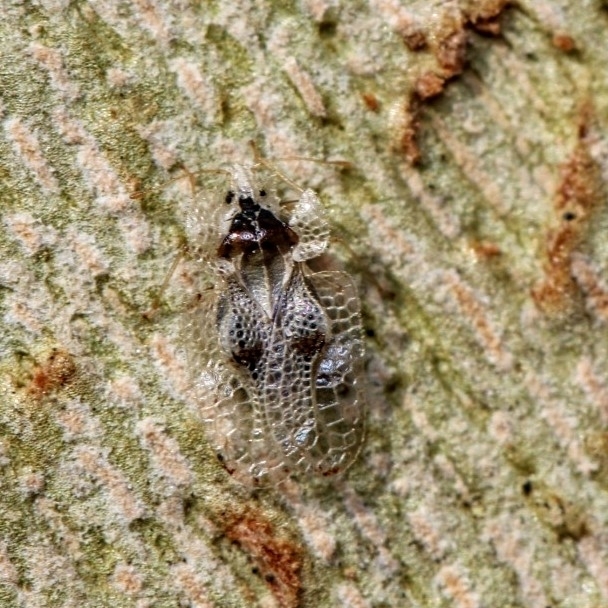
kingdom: Animalia
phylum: Arthropoda
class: Insecta
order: Hemiptera
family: Tingidae
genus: Corythucha
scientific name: Corythucha ciliata
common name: Sycamore lace bug
